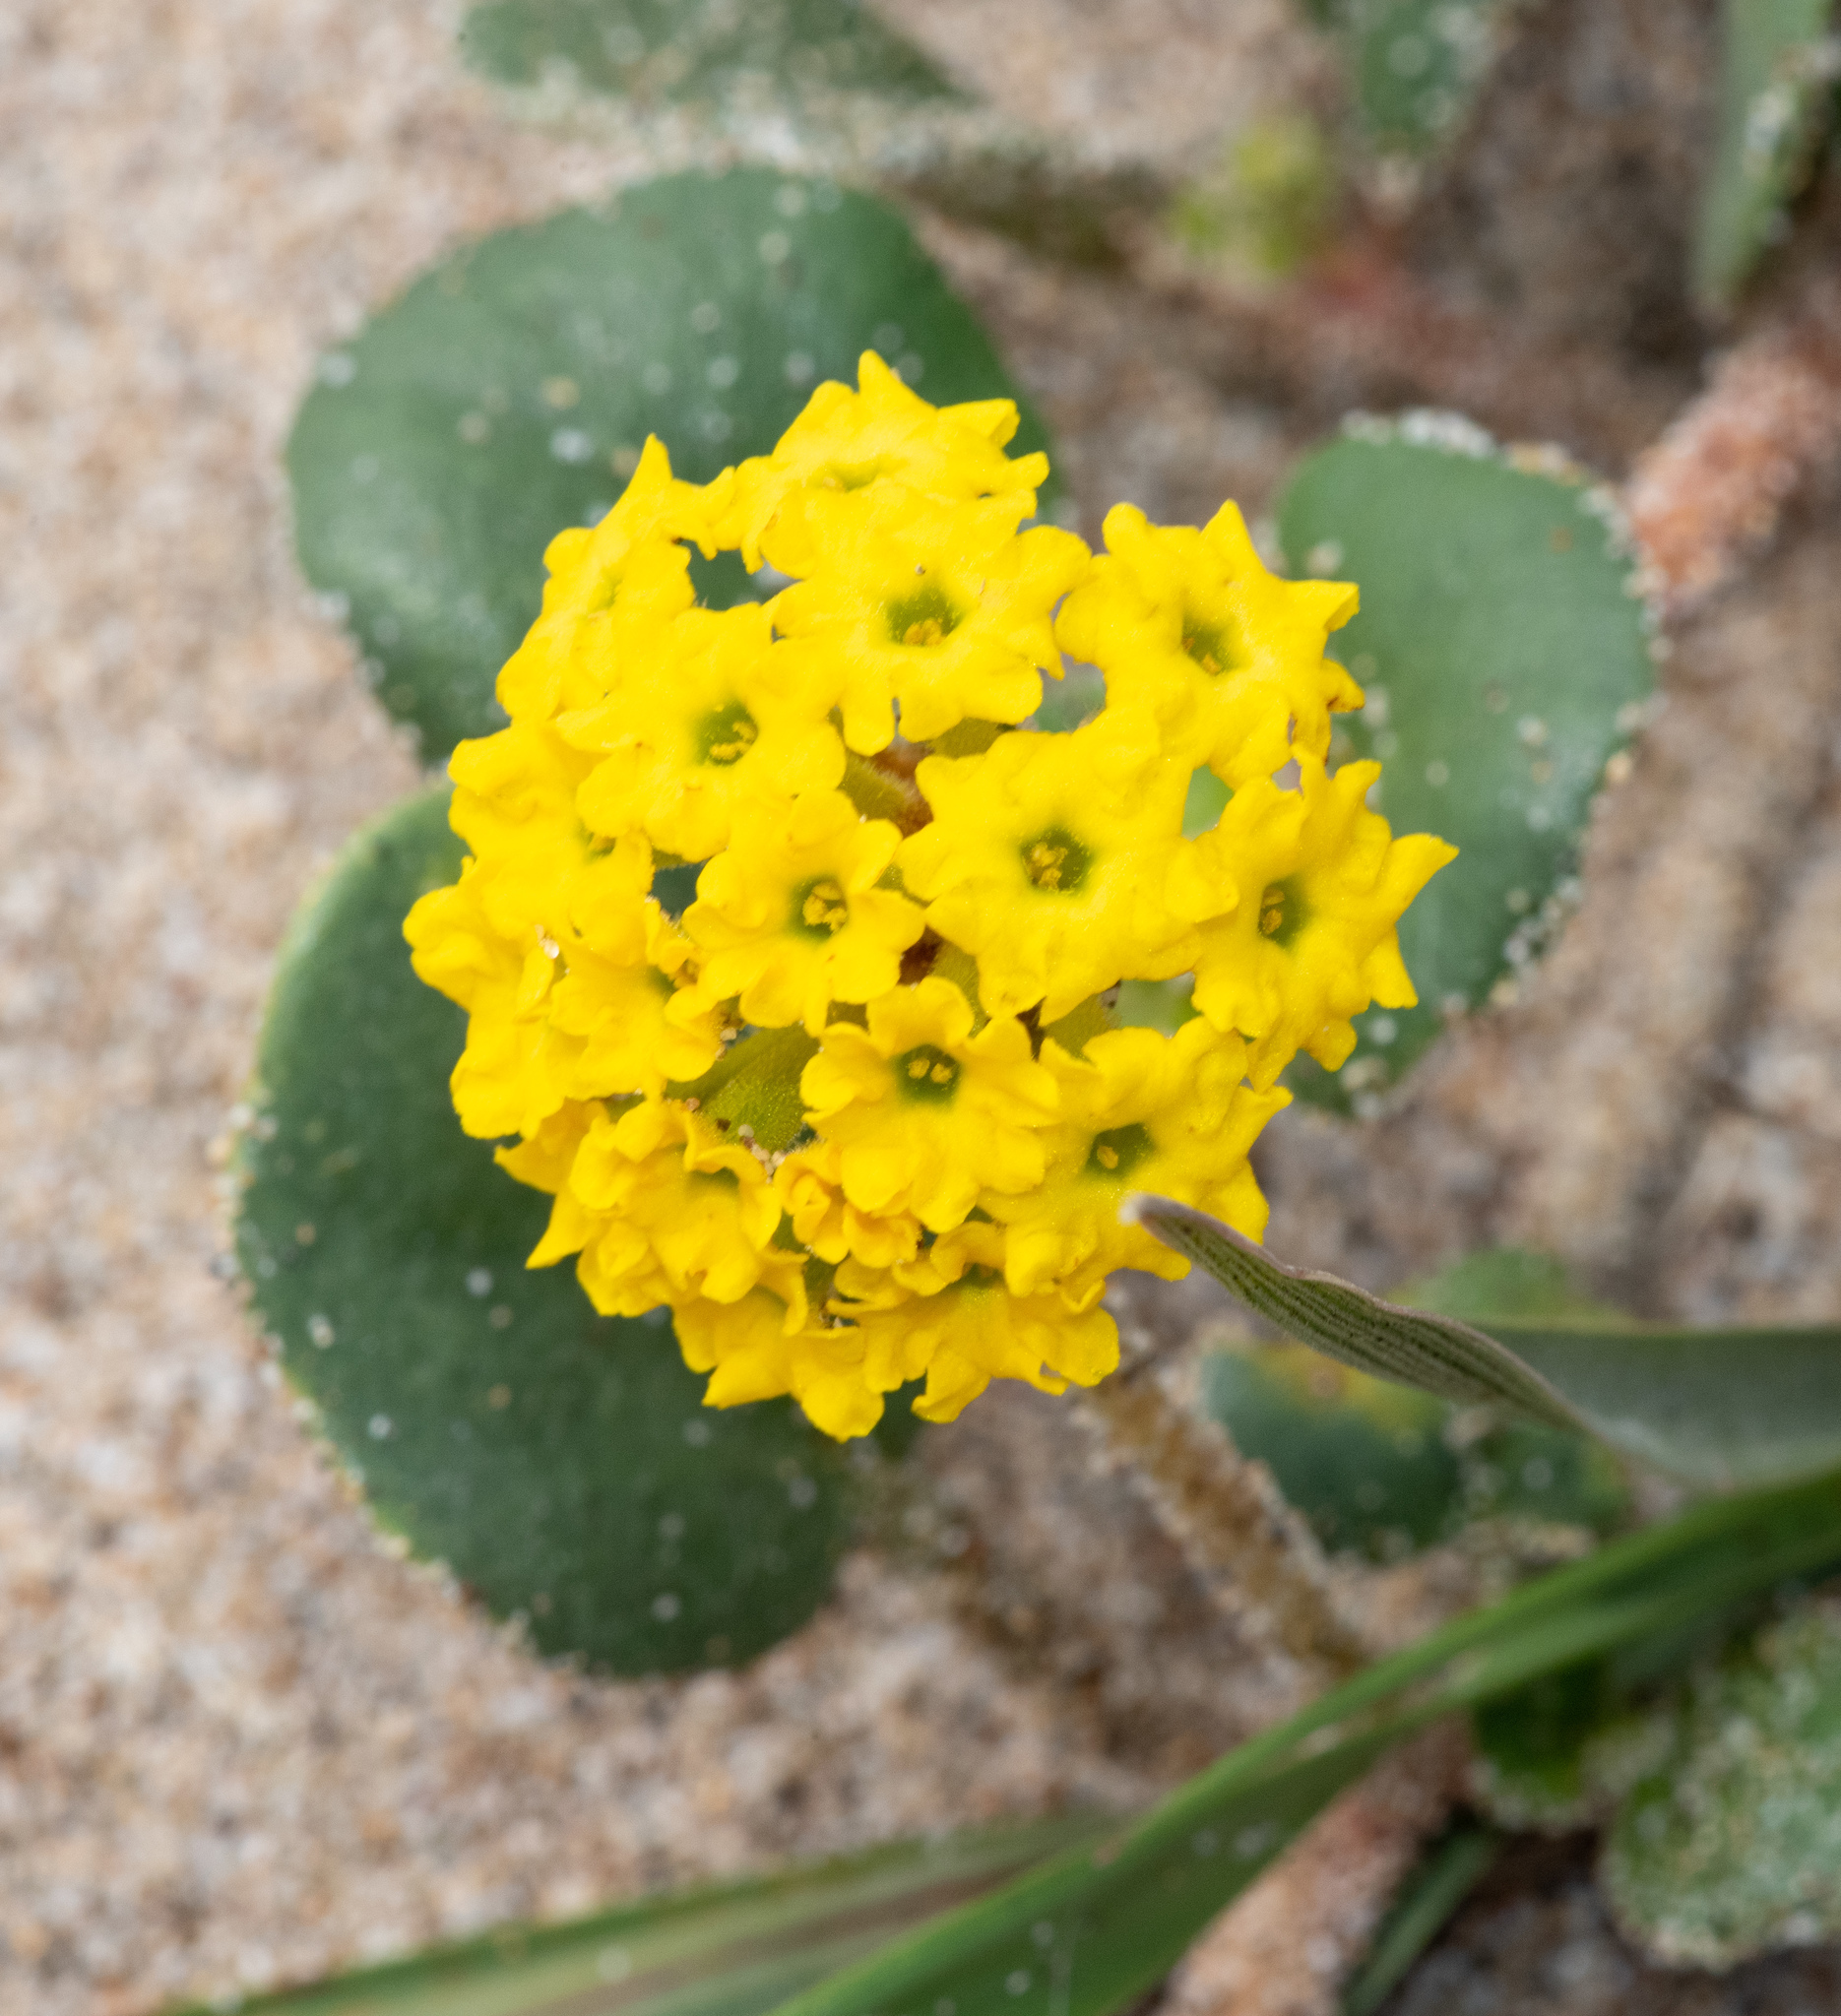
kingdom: Plantae
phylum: Tracheophyta
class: Magnoliopsida
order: Caryophyllales
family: Nyctaginaceae
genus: Abronia
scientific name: Abronia latifolia
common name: Yellow sand-verbena
